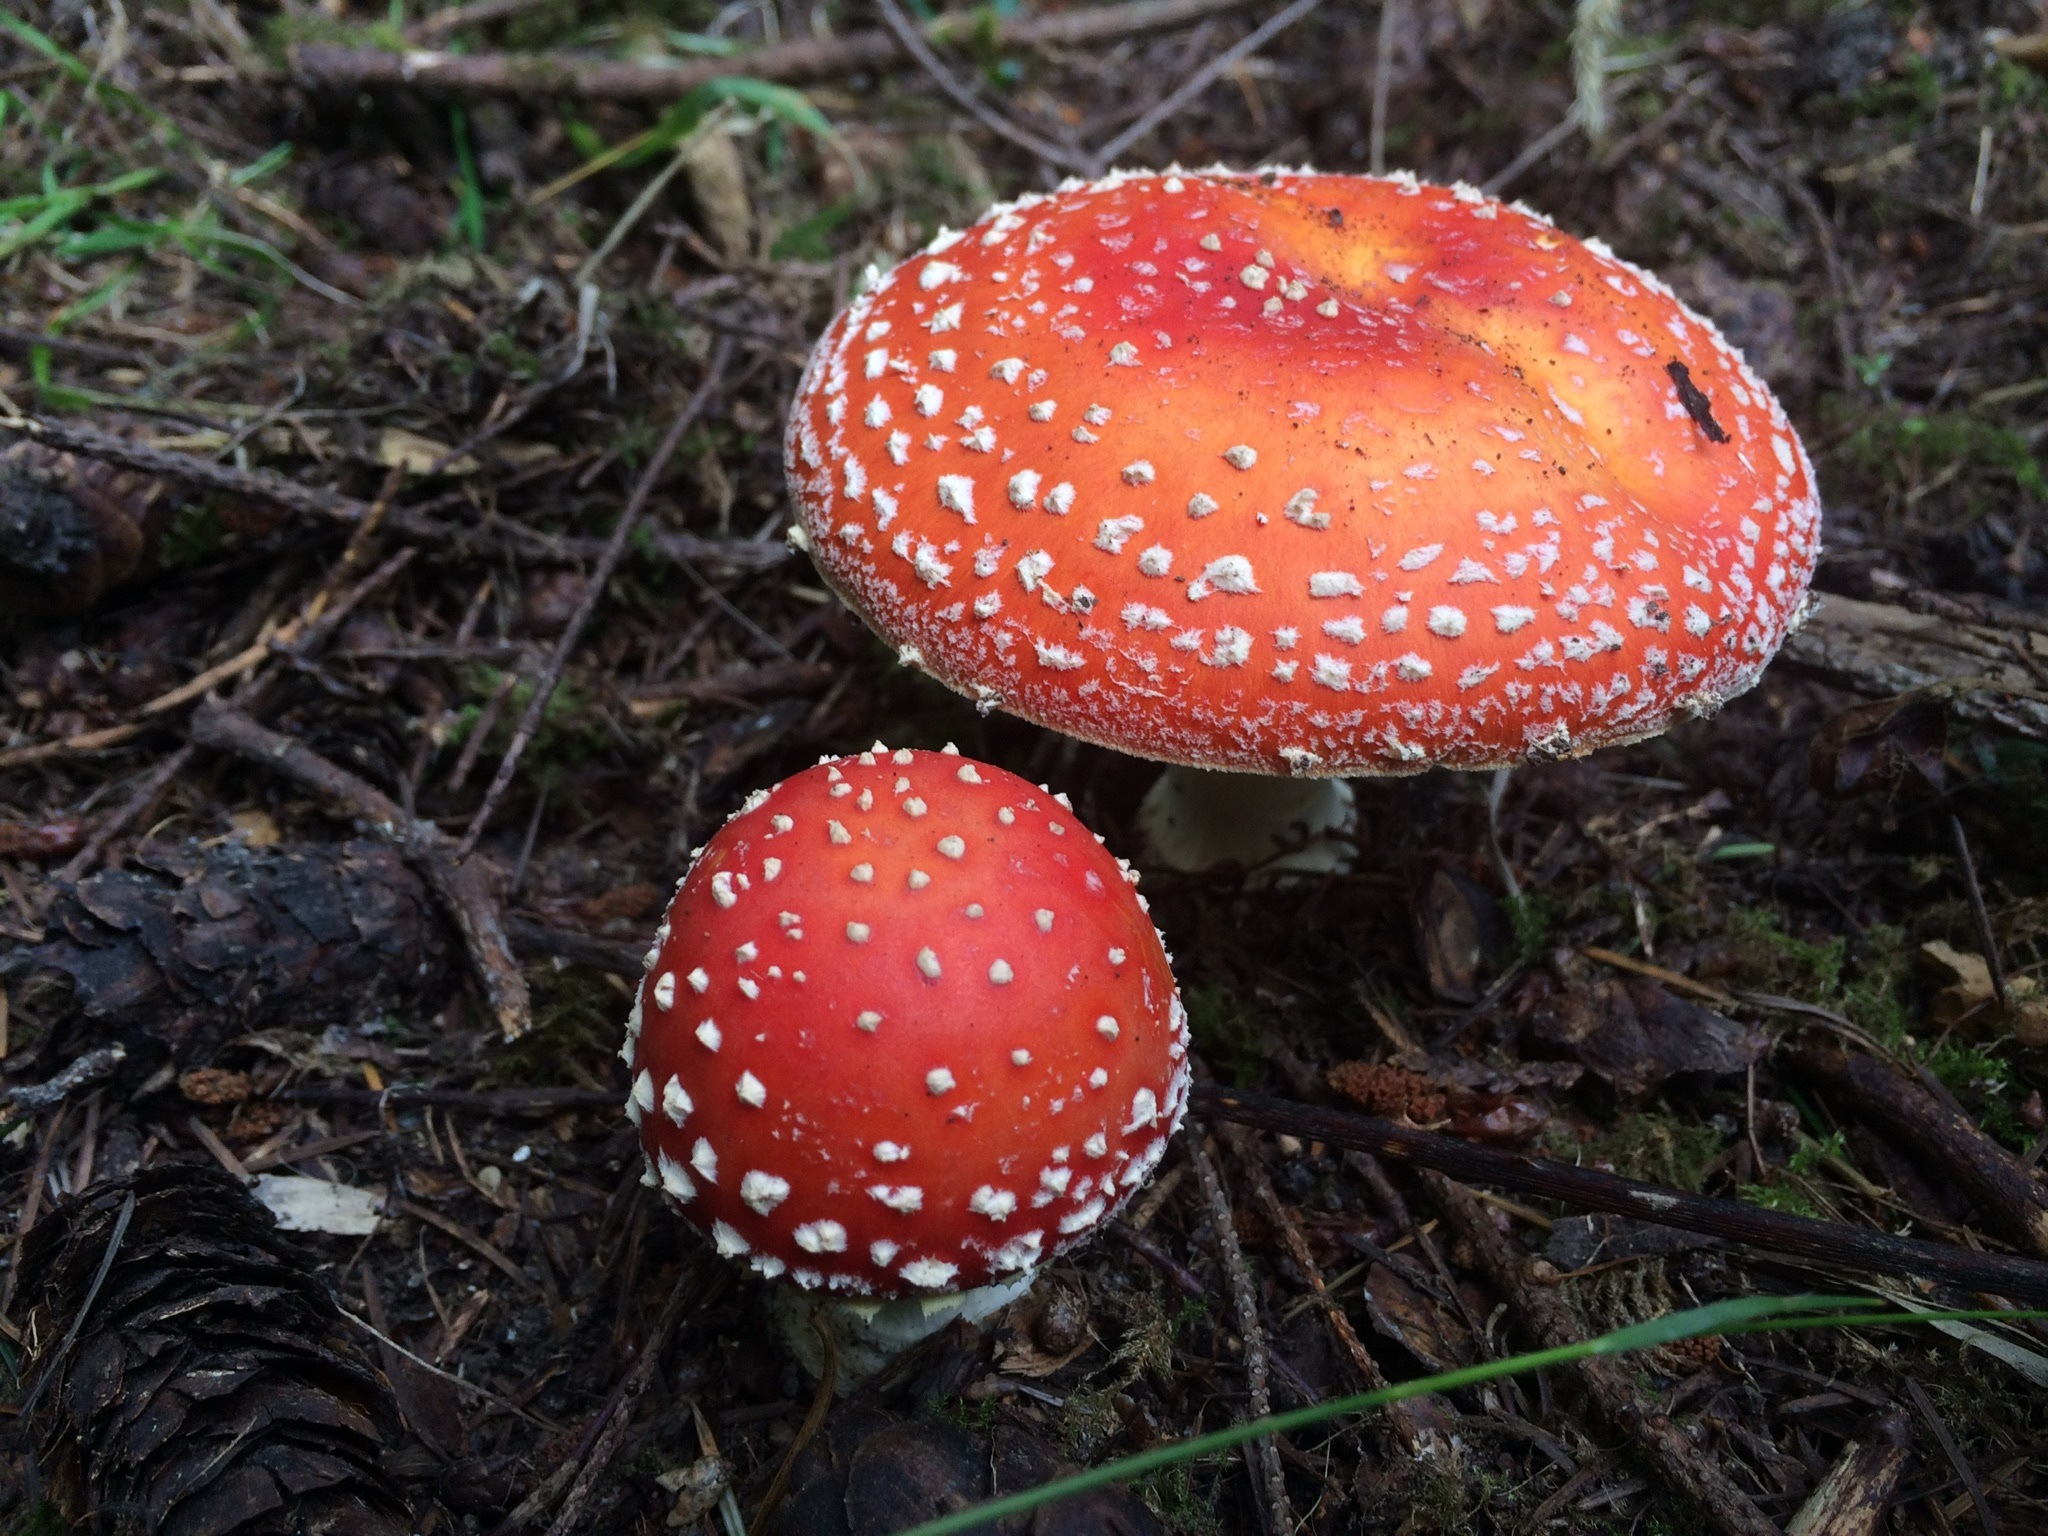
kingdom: Fungi
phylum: Basidiomycota
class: Agaricomycetes
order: Agaricales
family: Amanitaceae
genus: Amanita
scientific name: Amanita muscaria
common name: Fly agaric
